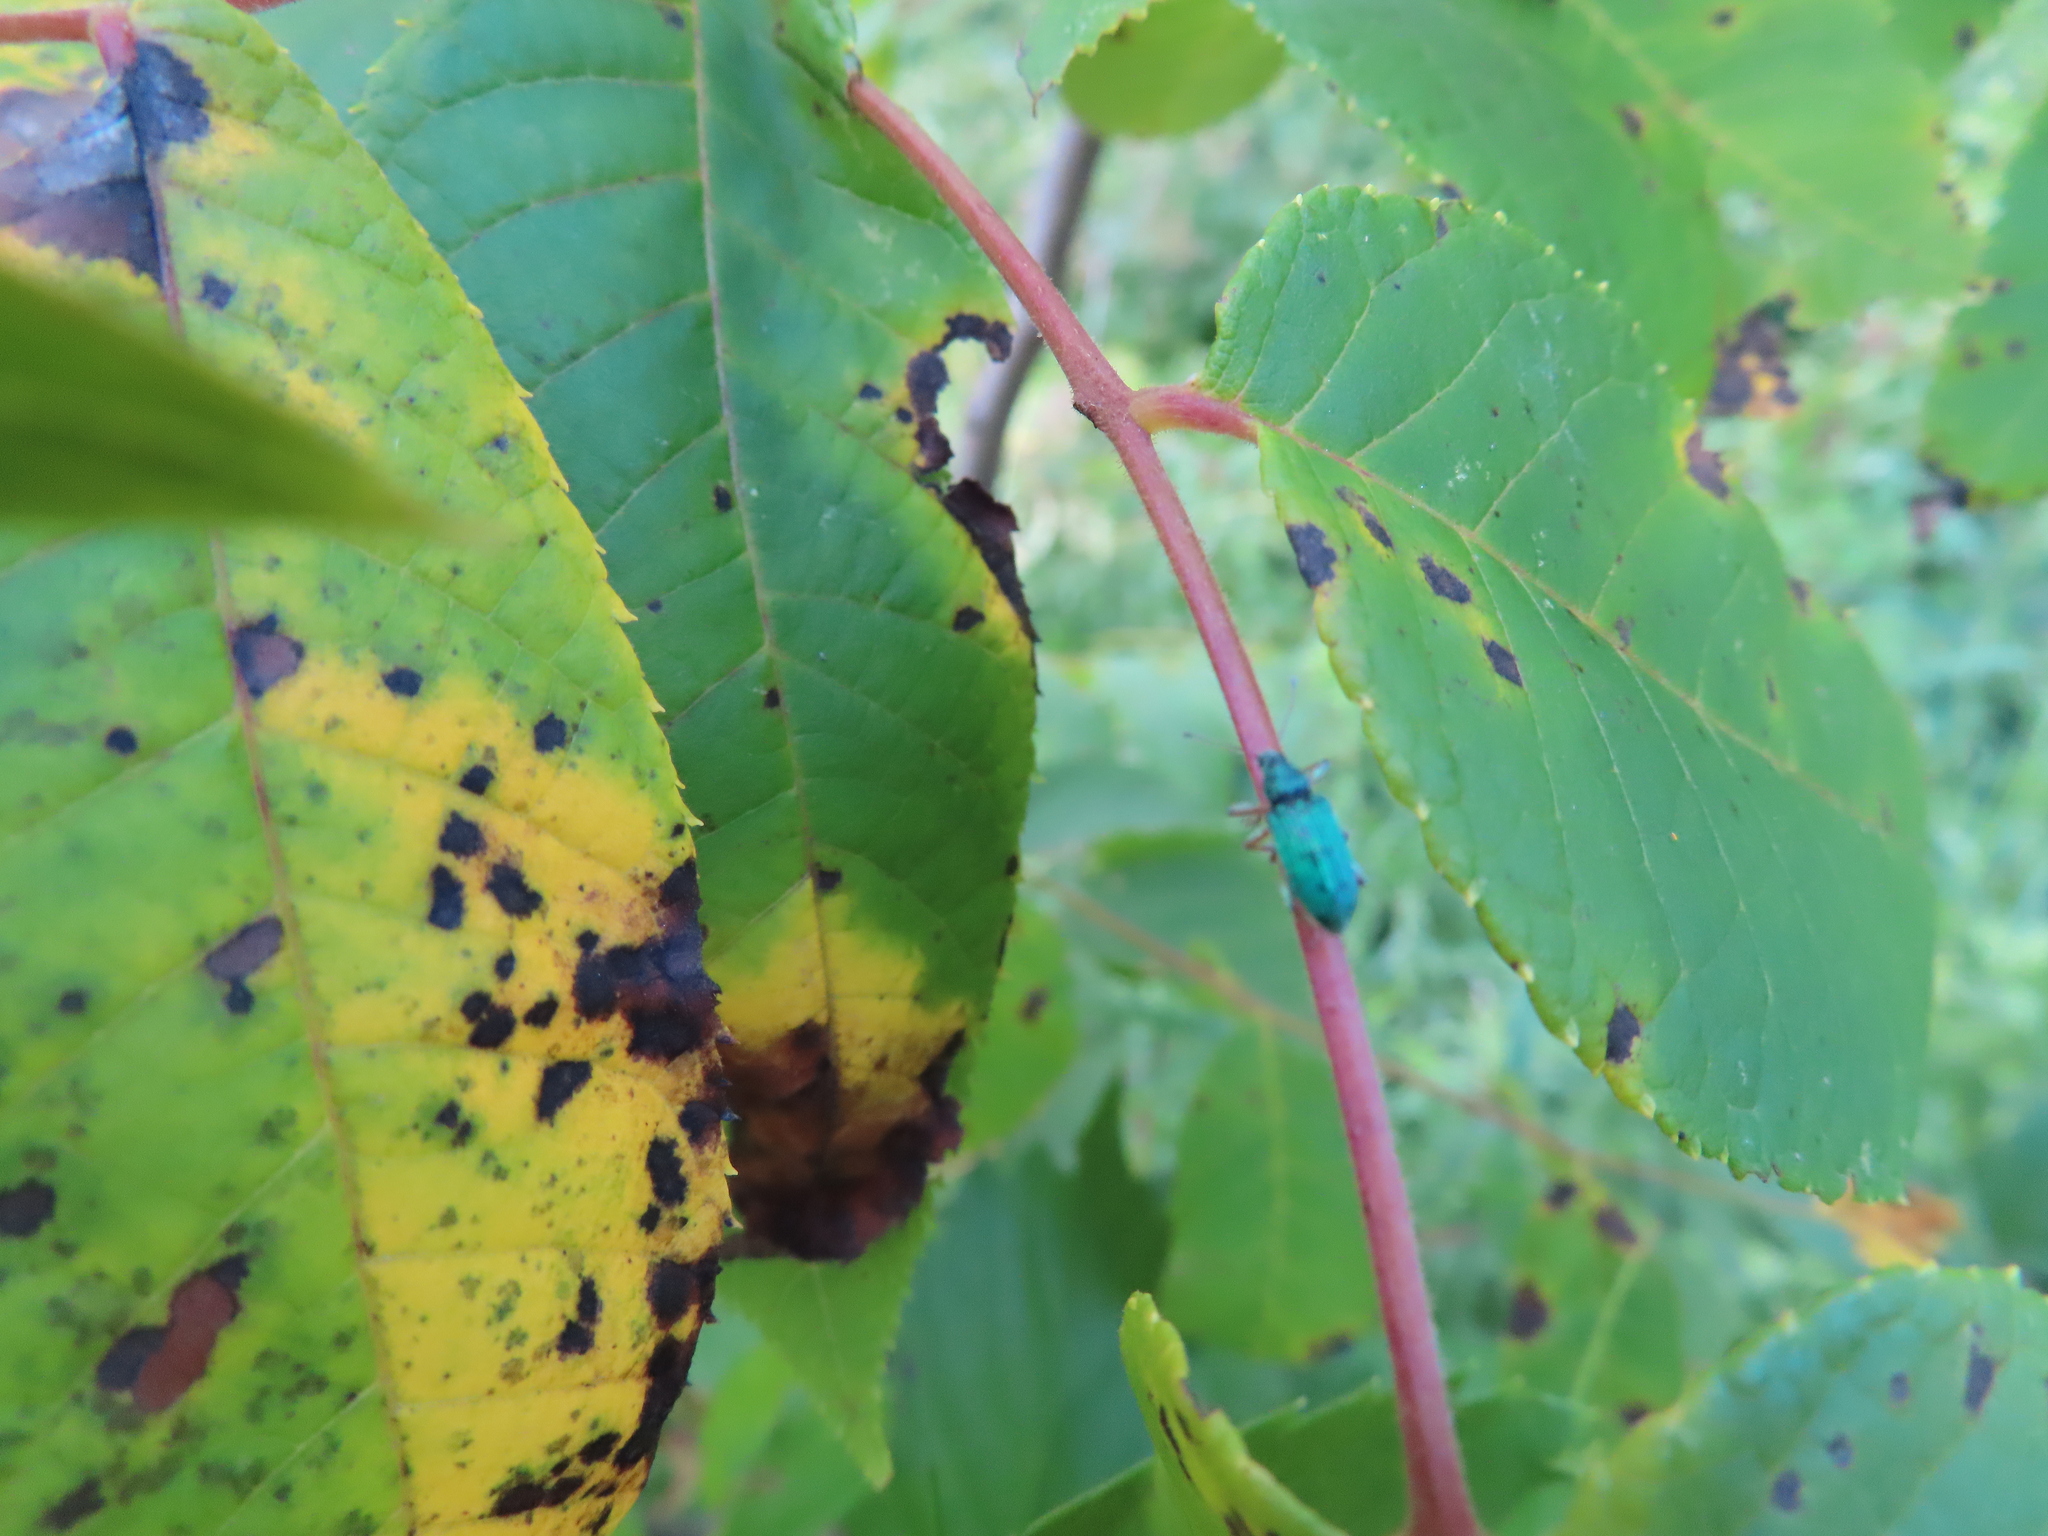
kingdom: Animalia
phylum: Arthropoda
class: Insecta
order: Coleoptera
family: Curculionidae
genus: Polydrusus
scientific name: Polydrusus formosus
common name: Weevil
